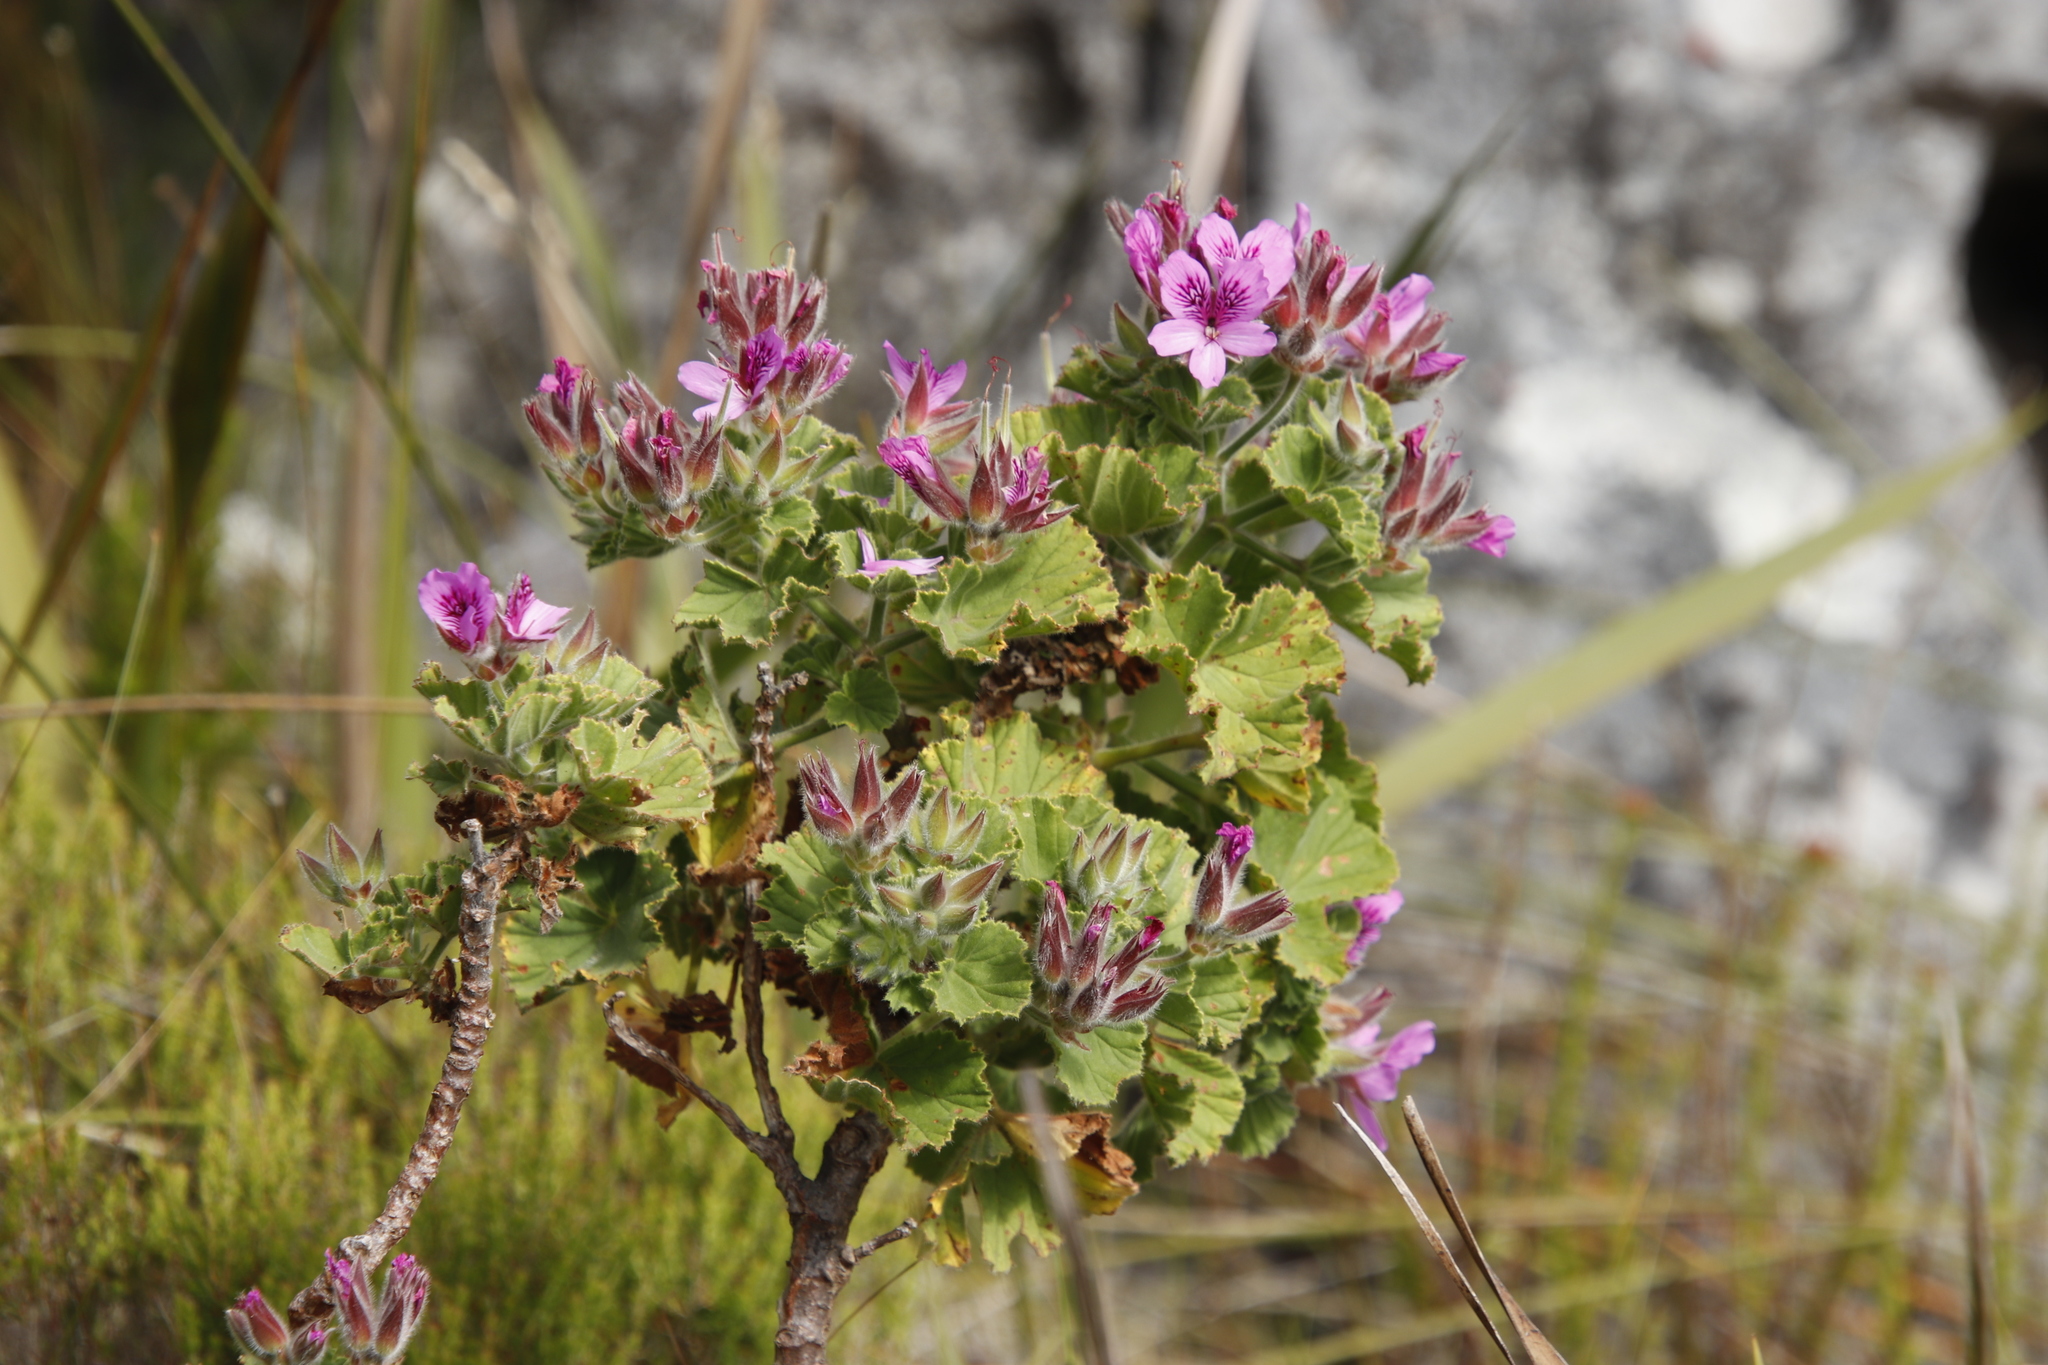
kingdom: Plantae
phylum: Tracheophyta
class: Magnoliopsida
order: Geraniales
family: Geraniaceae
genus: Pelargonium
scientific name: Pelargonium cucullatum
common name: Tree pelargonium
